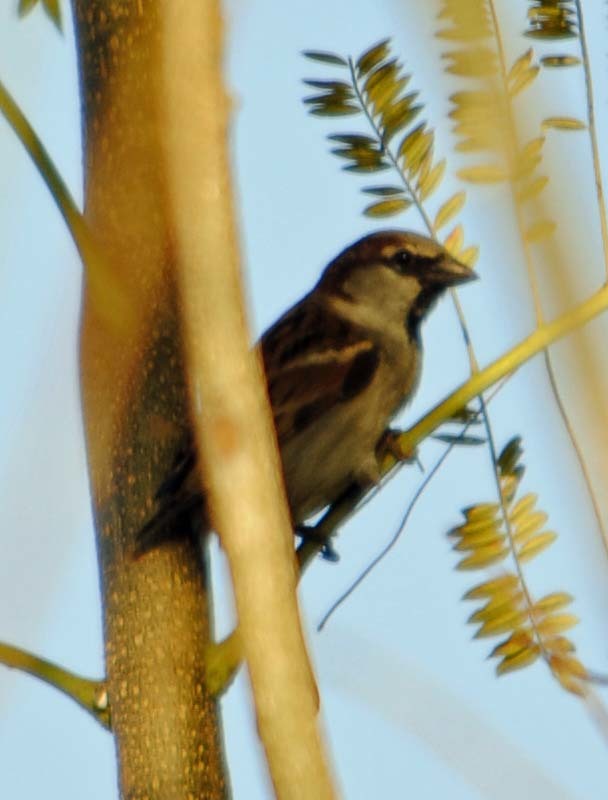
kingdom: Animalia
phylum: Chordata
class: Aves
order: Passeriformes
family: Passeridae
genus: Passer
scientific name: Passer domesticus
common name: House sparrow
